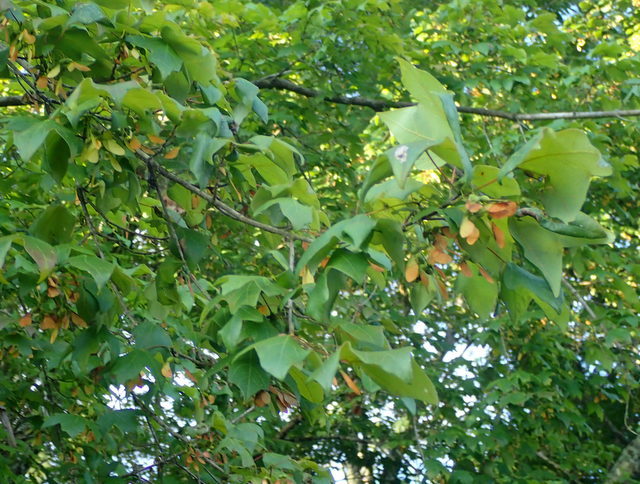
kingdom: Plantae
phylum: Tracheophyta
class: Magnoliopsida
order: Sapindales
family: Sapindaceae
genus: Acer
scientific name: Acer floridanum
